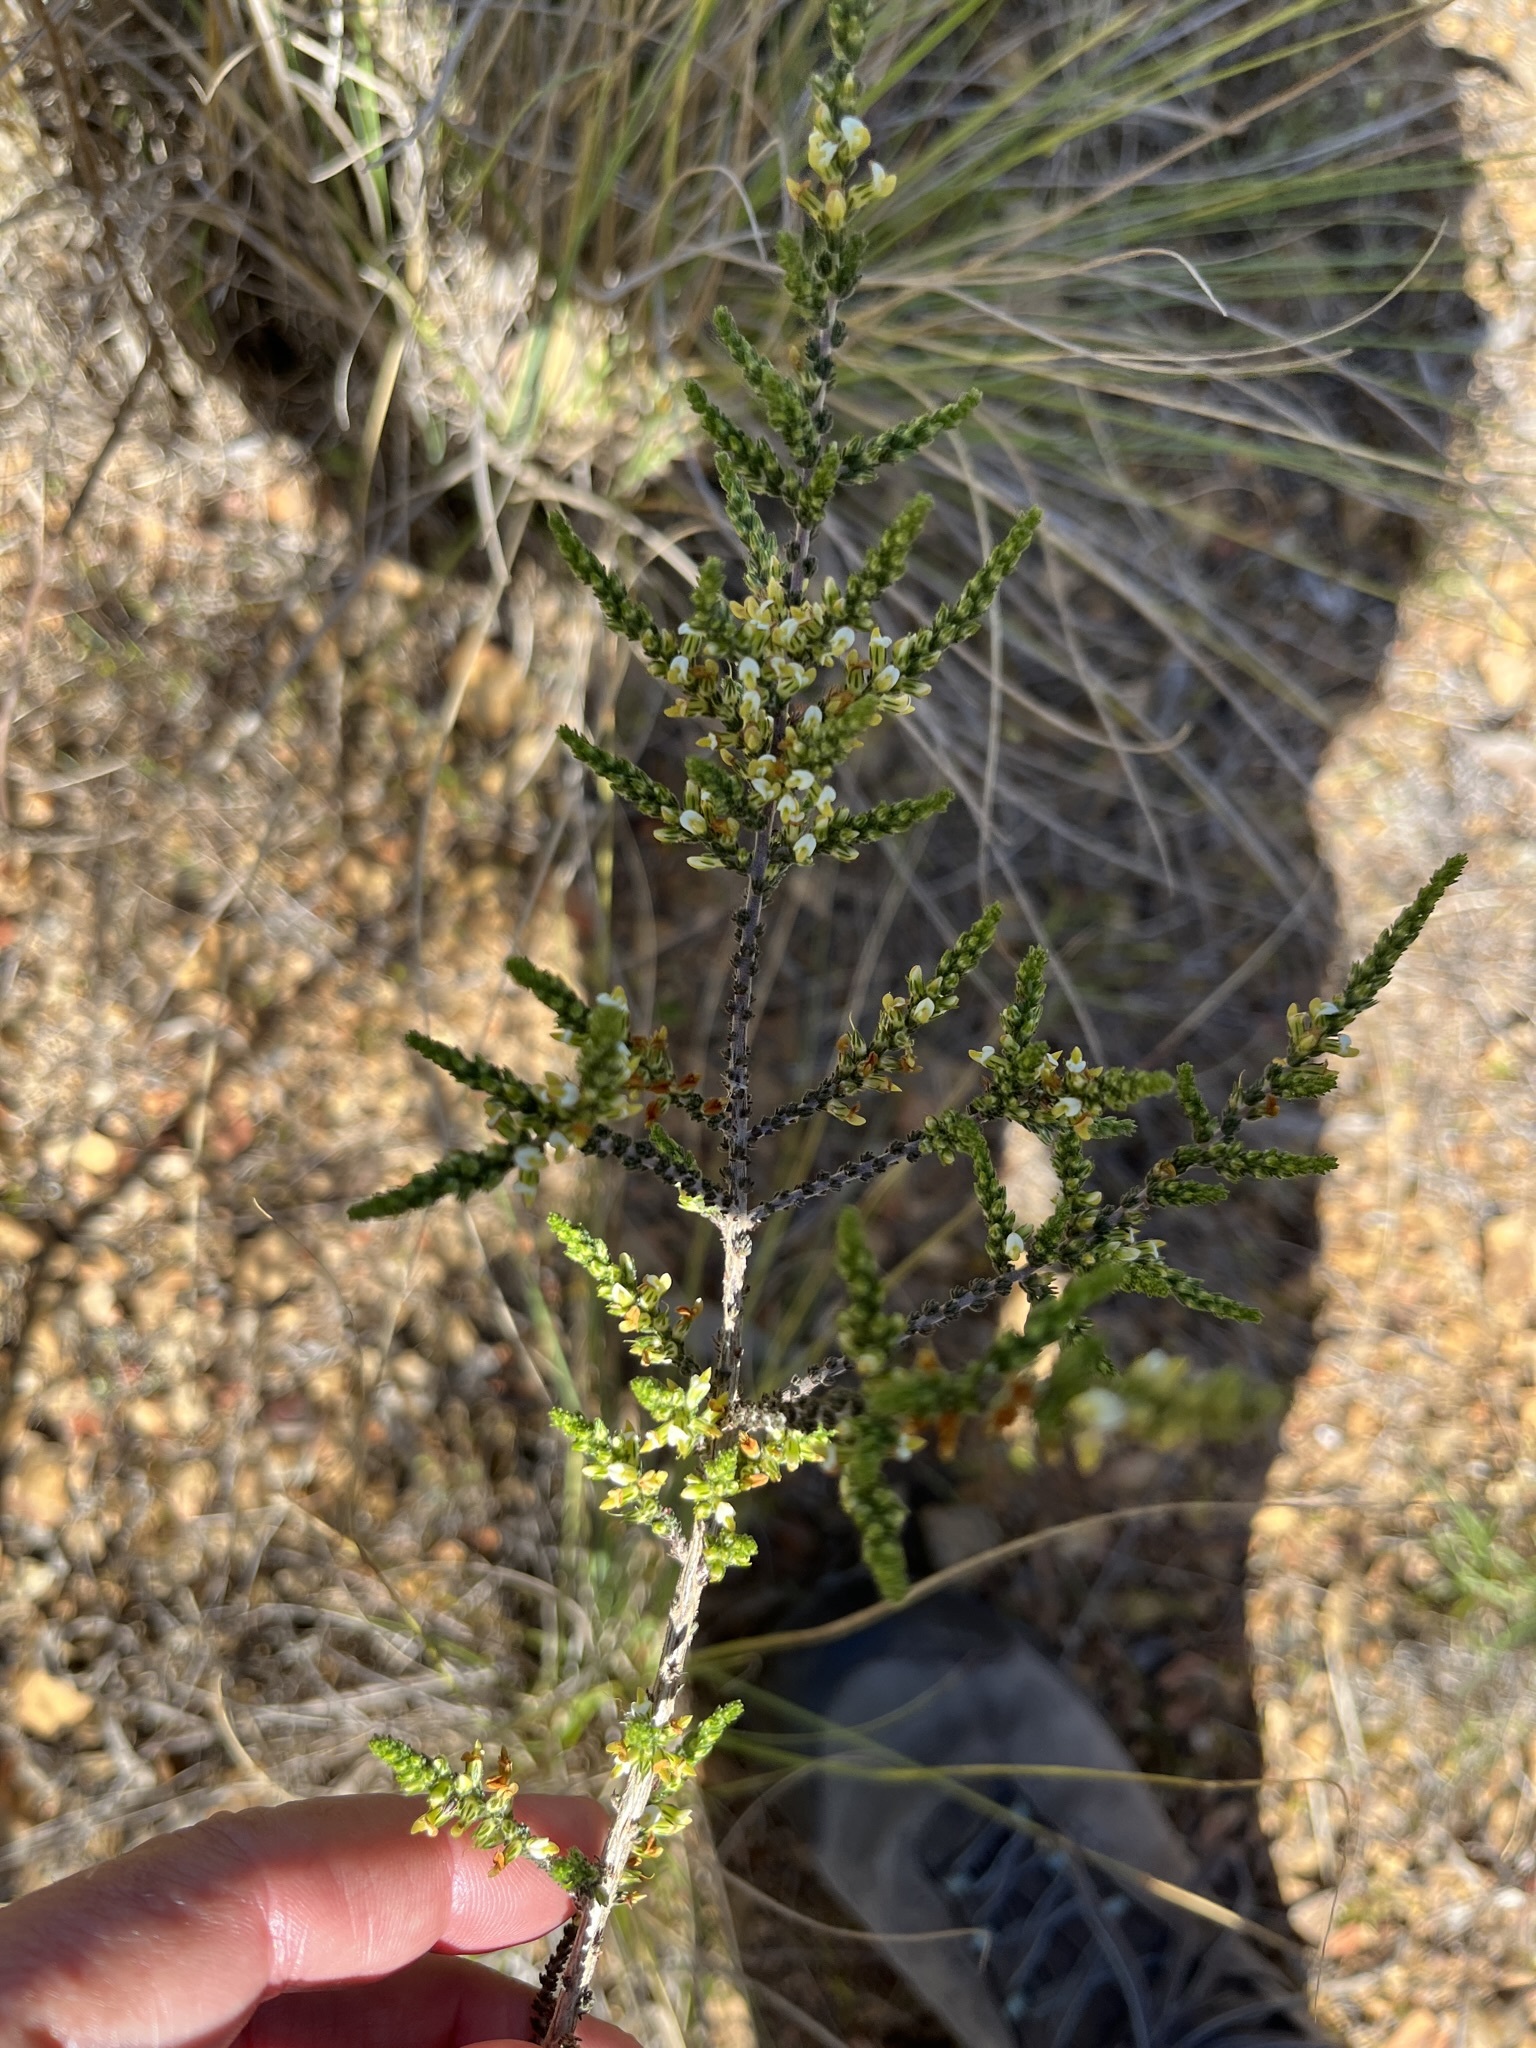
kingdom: Plantae
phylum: Tracheophyta
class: Magnoliopsida
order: Fabales
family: Fabaceae
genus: Aspalathus
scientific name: Aspalathus hispida
